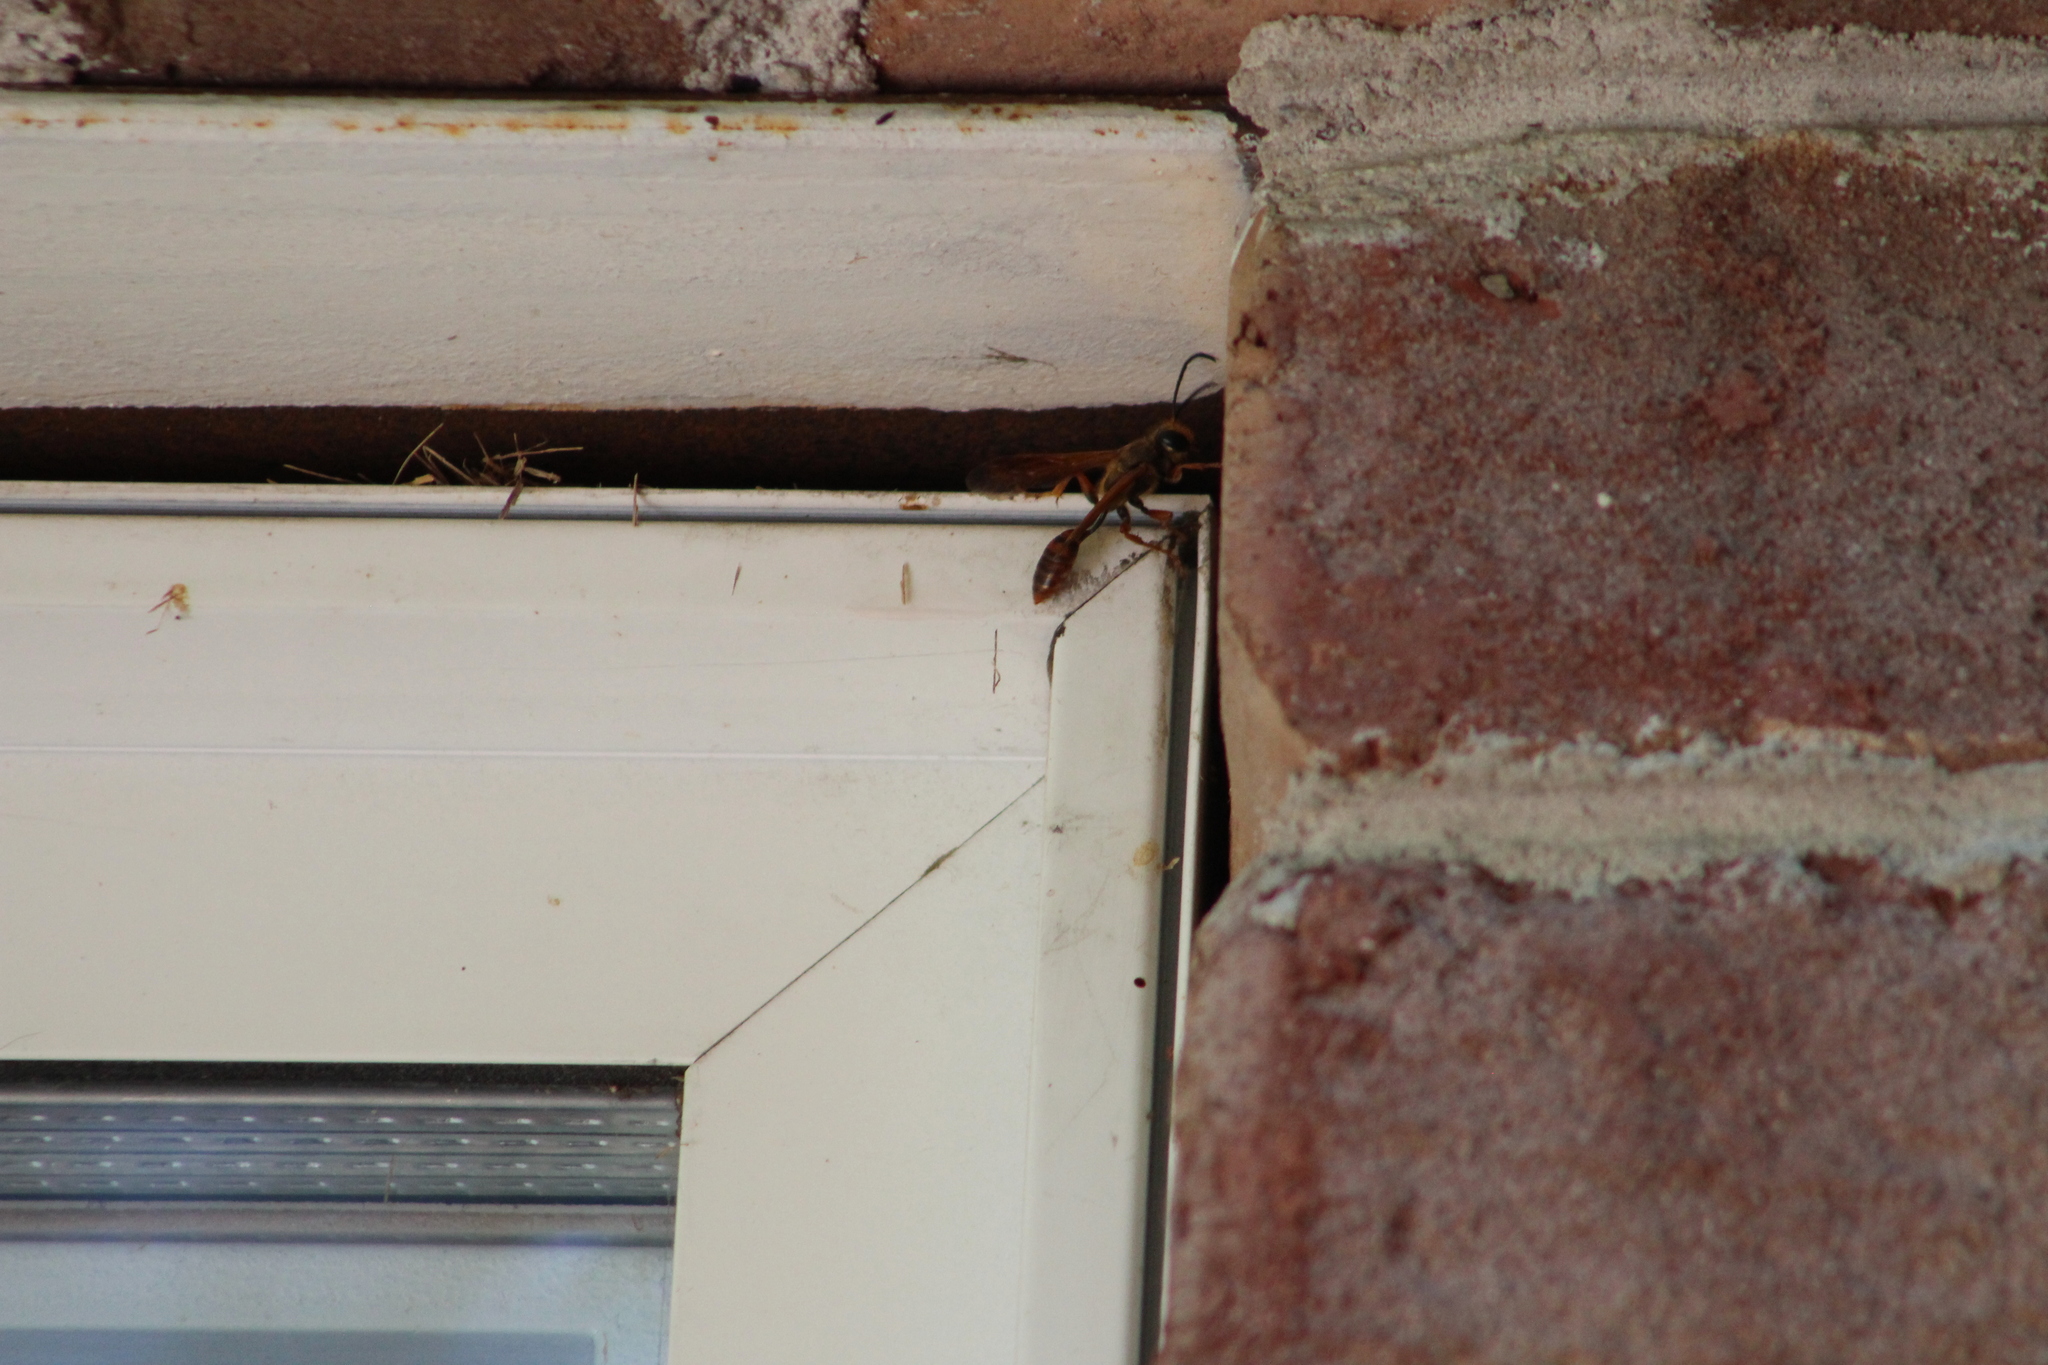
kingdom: Animalia
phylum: Arthropoda
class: Insecta
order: Hymenoptera
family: Sphecidae
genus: Isodontia
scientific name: Isodontia elegans
